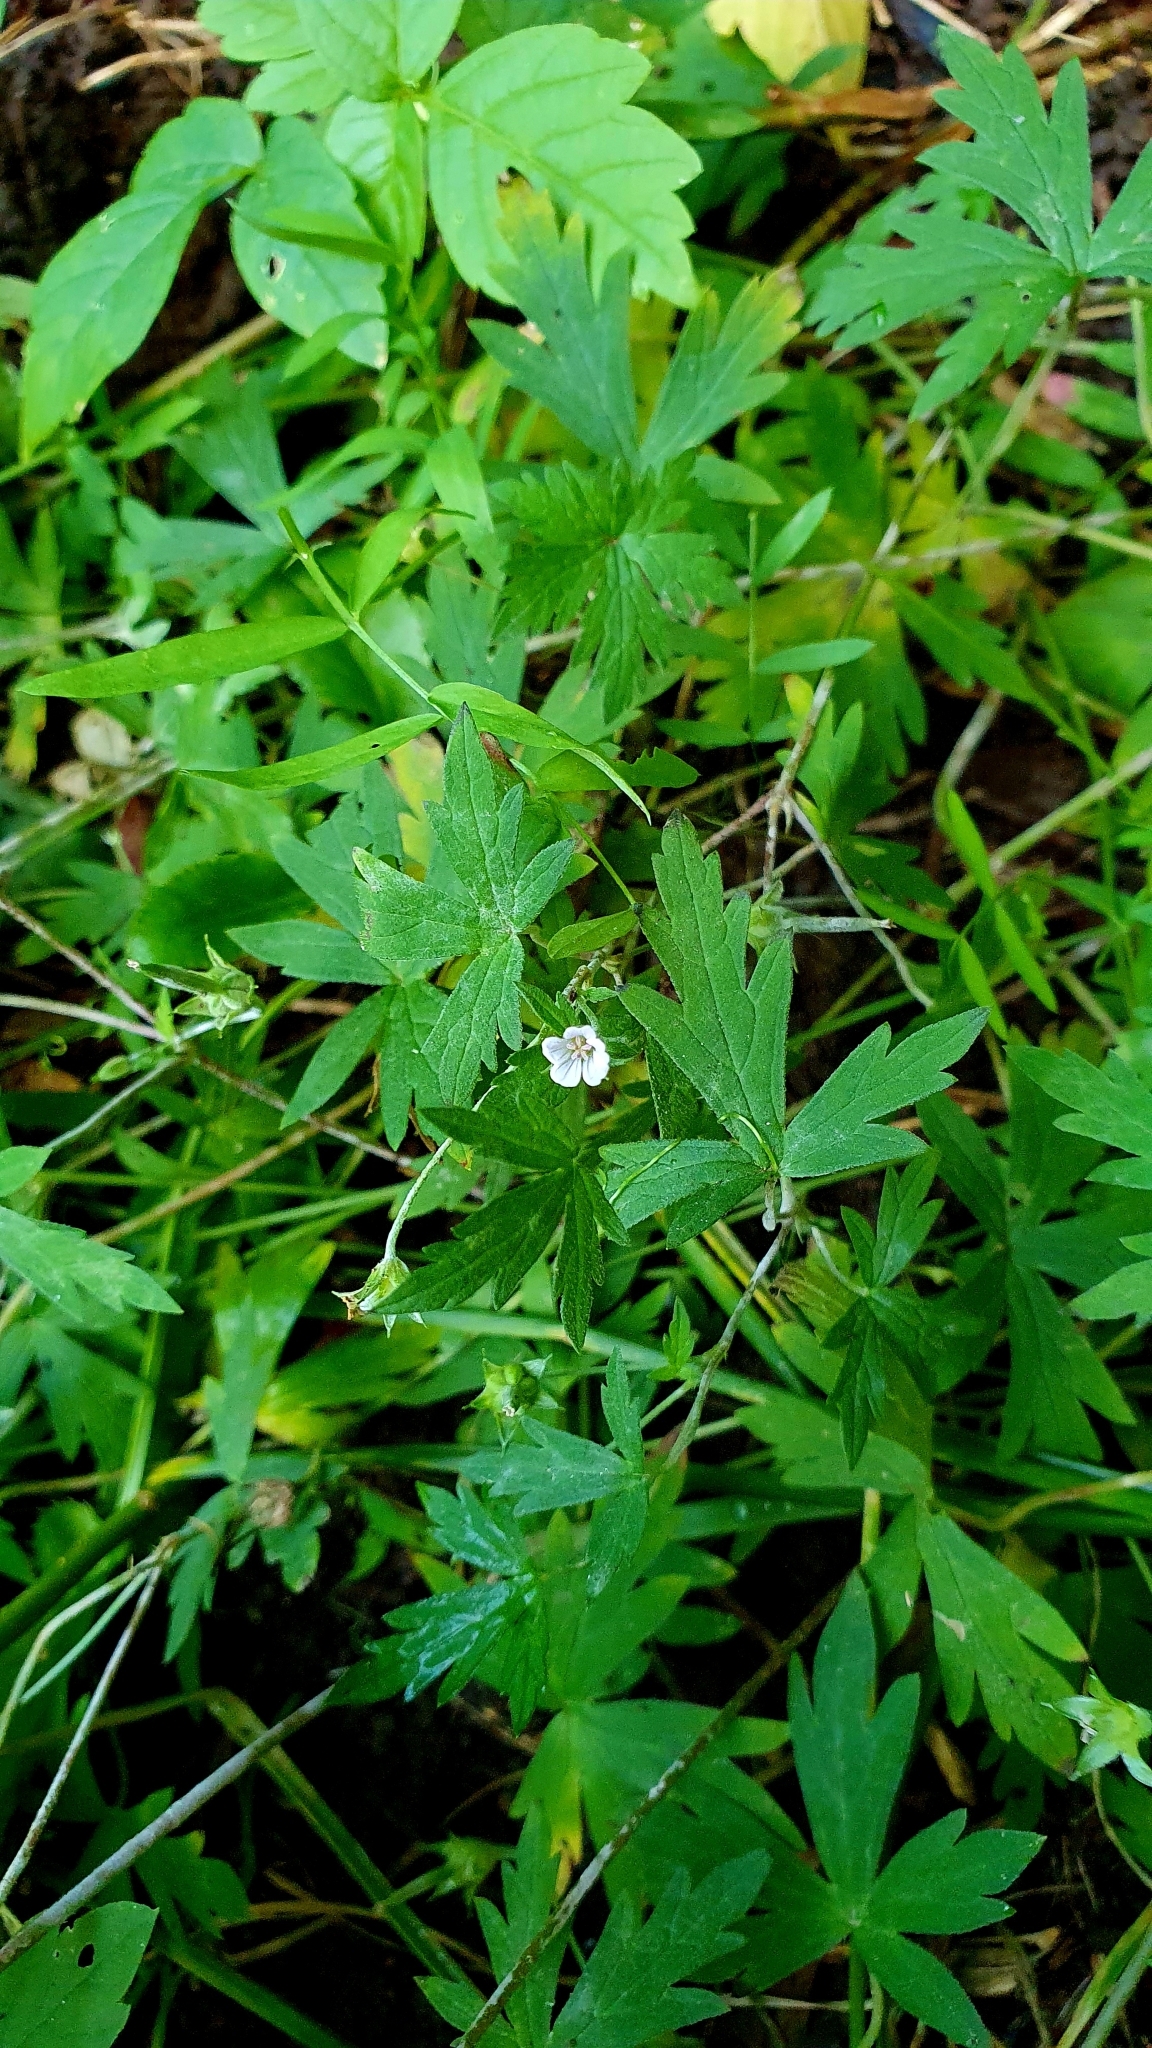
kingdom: Plantae
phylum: Tracheophyta
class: Magnoliopsida
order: Geraniales
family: Geraniaceae
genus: Geranium
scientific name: Geranium sibiricum
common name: Siberian crane's-bill
